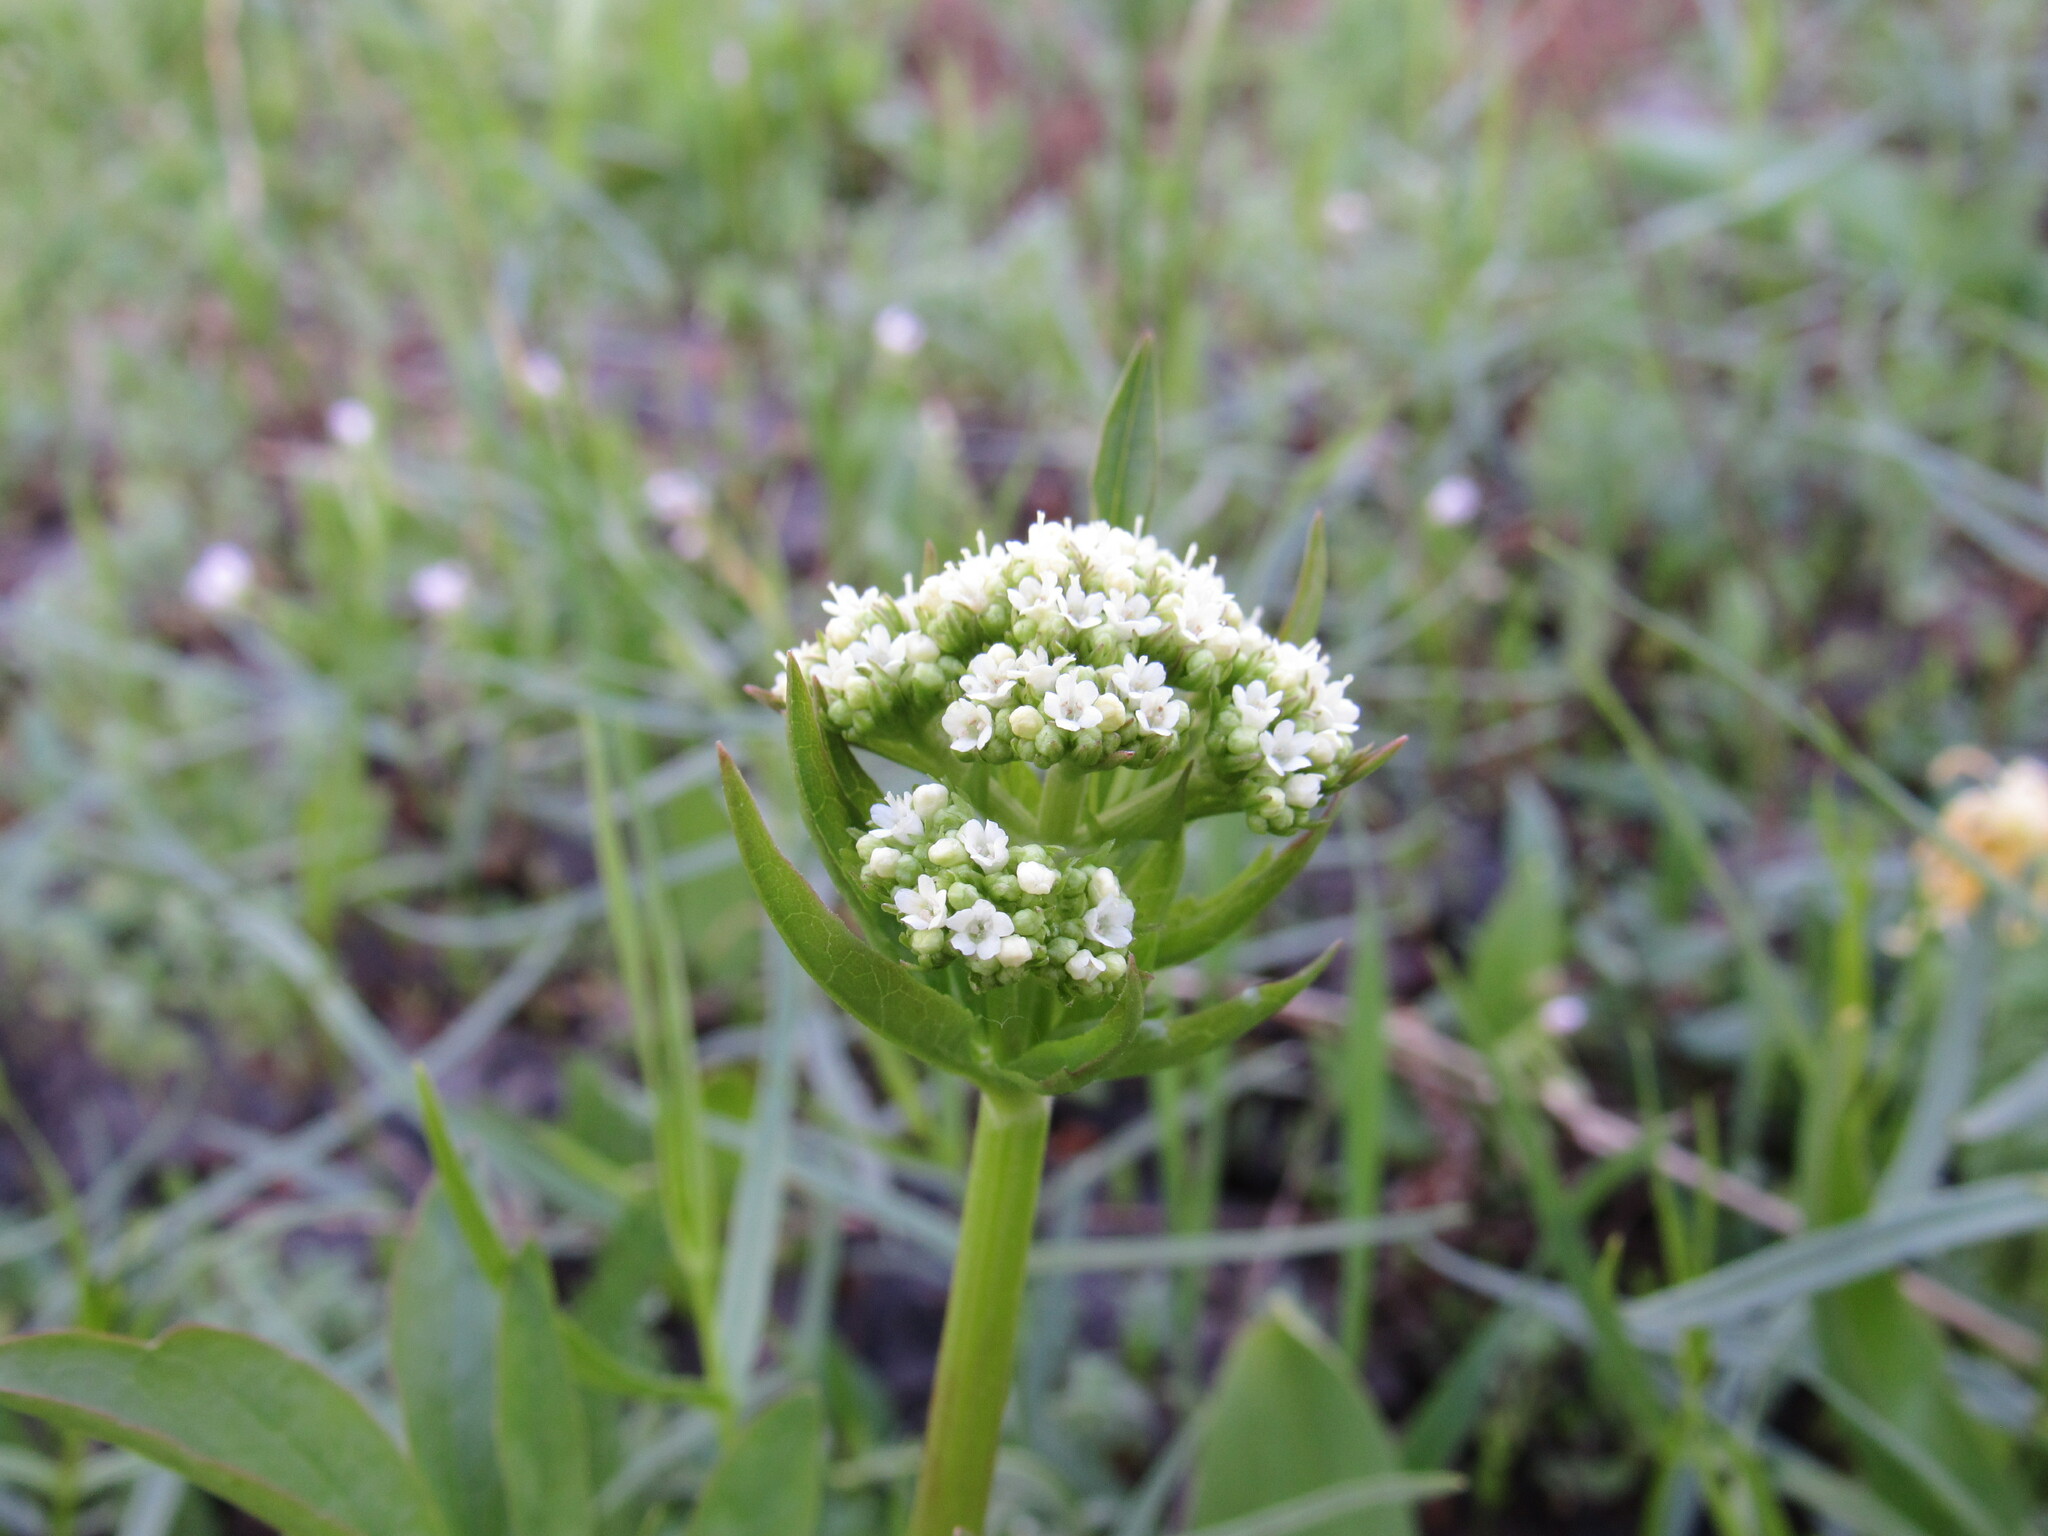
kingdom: Plantae
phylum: Tracheophyta
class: Magnoliopsida
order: Dipsacales
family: Caprifoliaceae
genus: Valeriana
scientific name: Valeriana occidentalis
